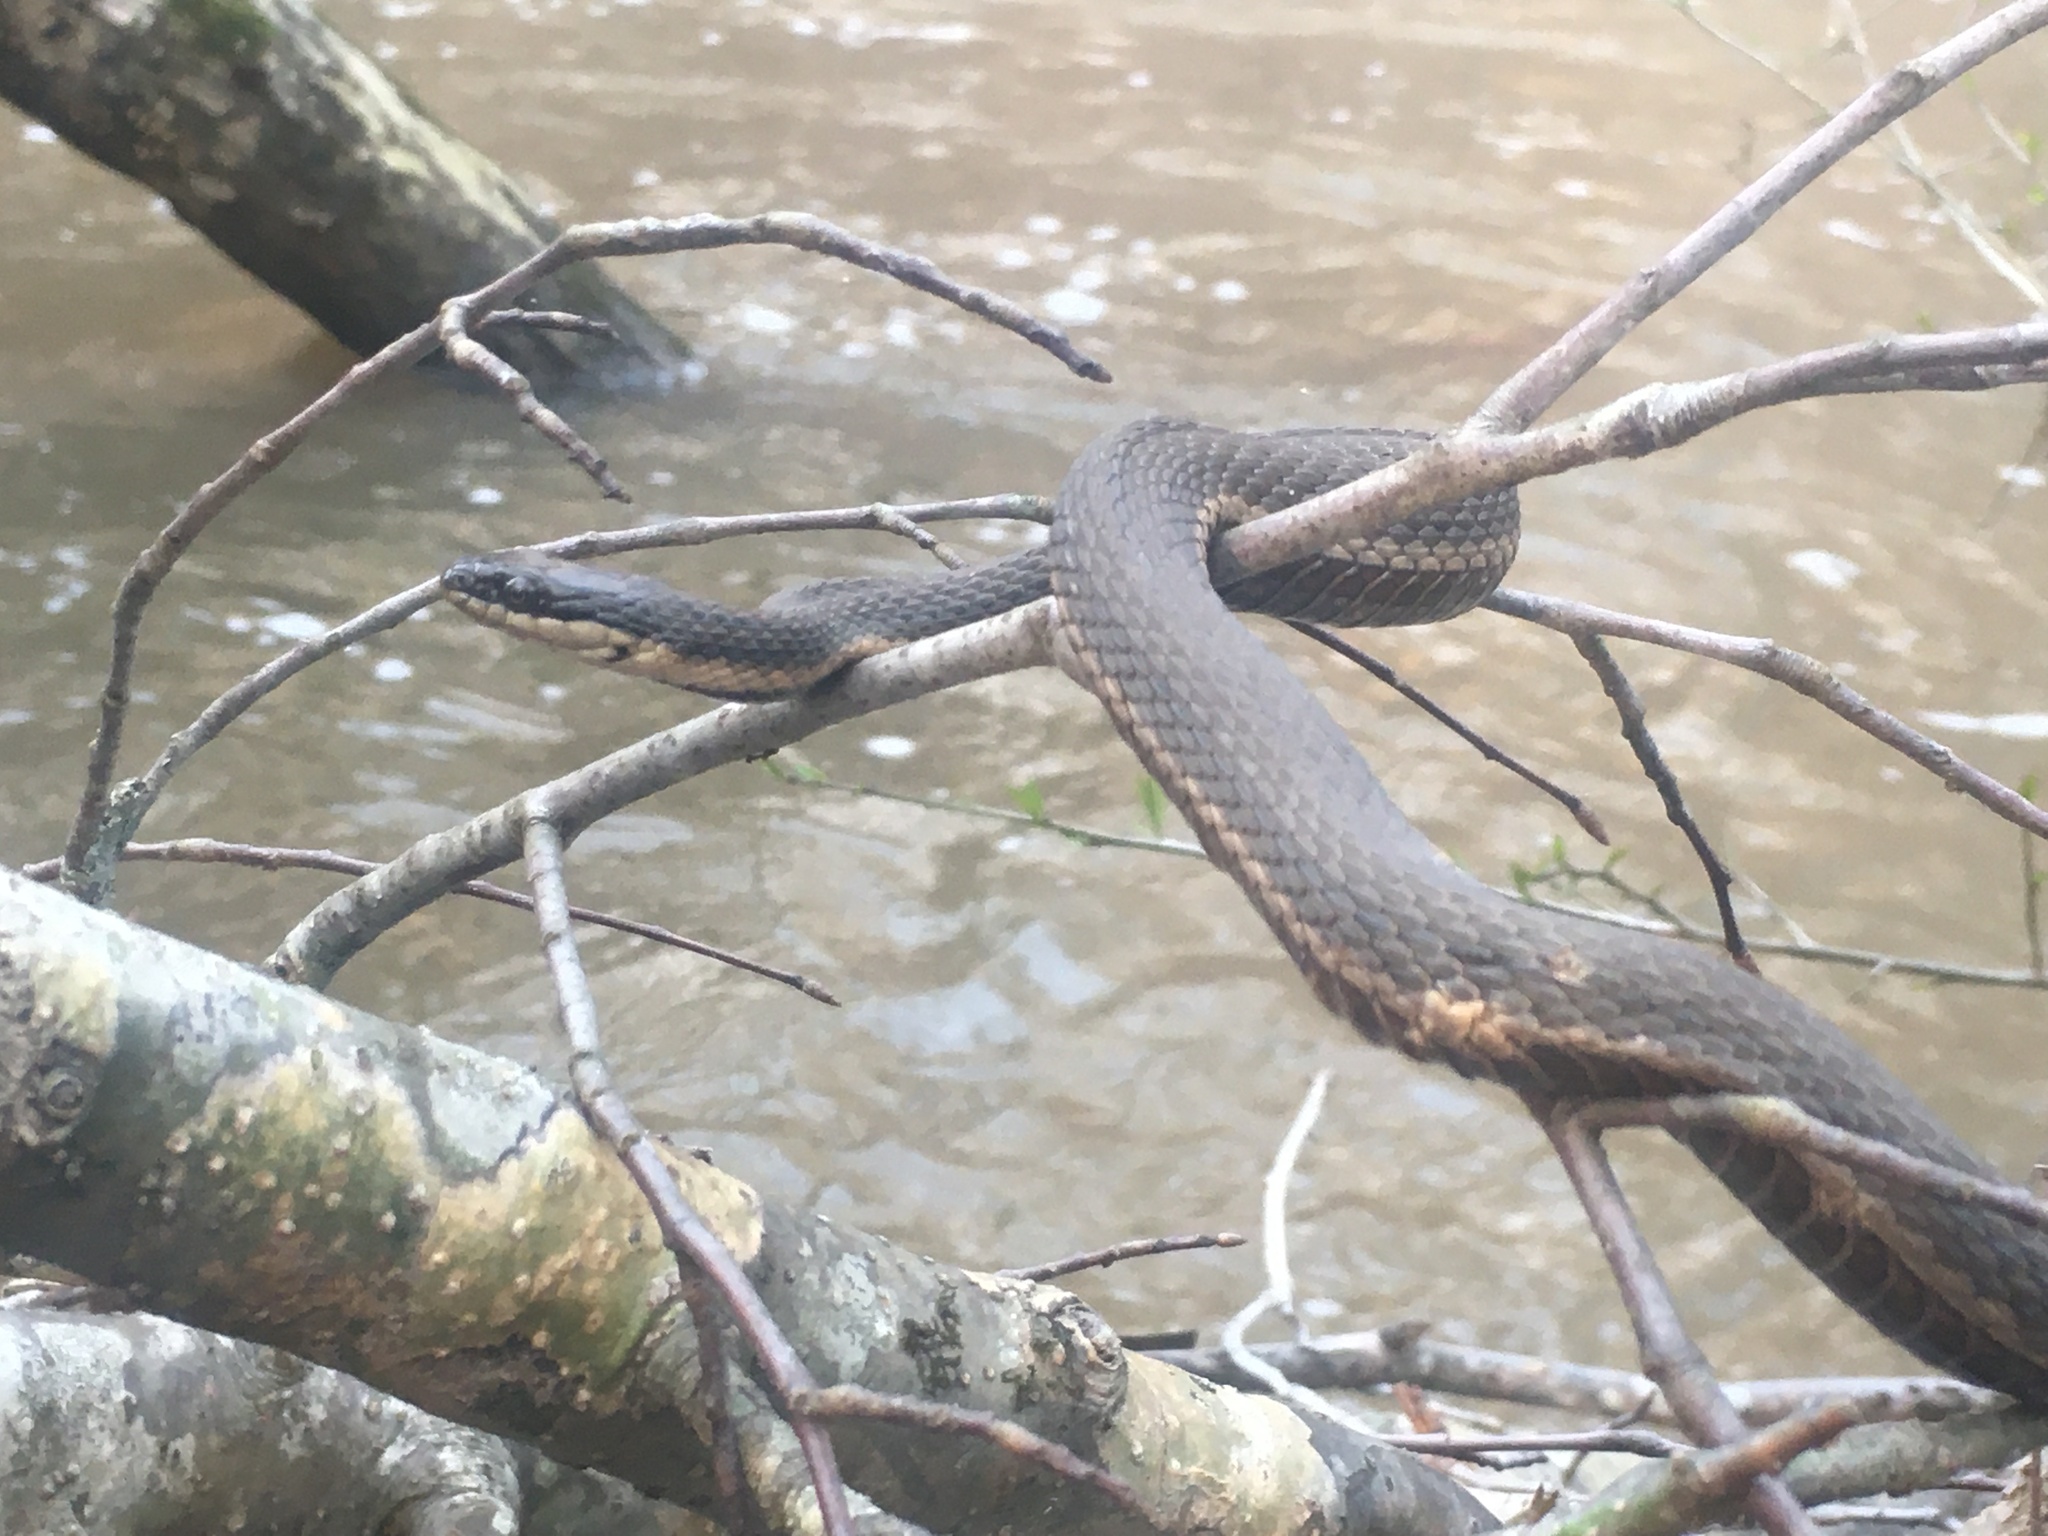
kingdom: Animalia
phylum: Chordata
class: Squamata
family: Colubridae
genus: Regina
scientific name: Regina septemvittata
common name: Queen snake
